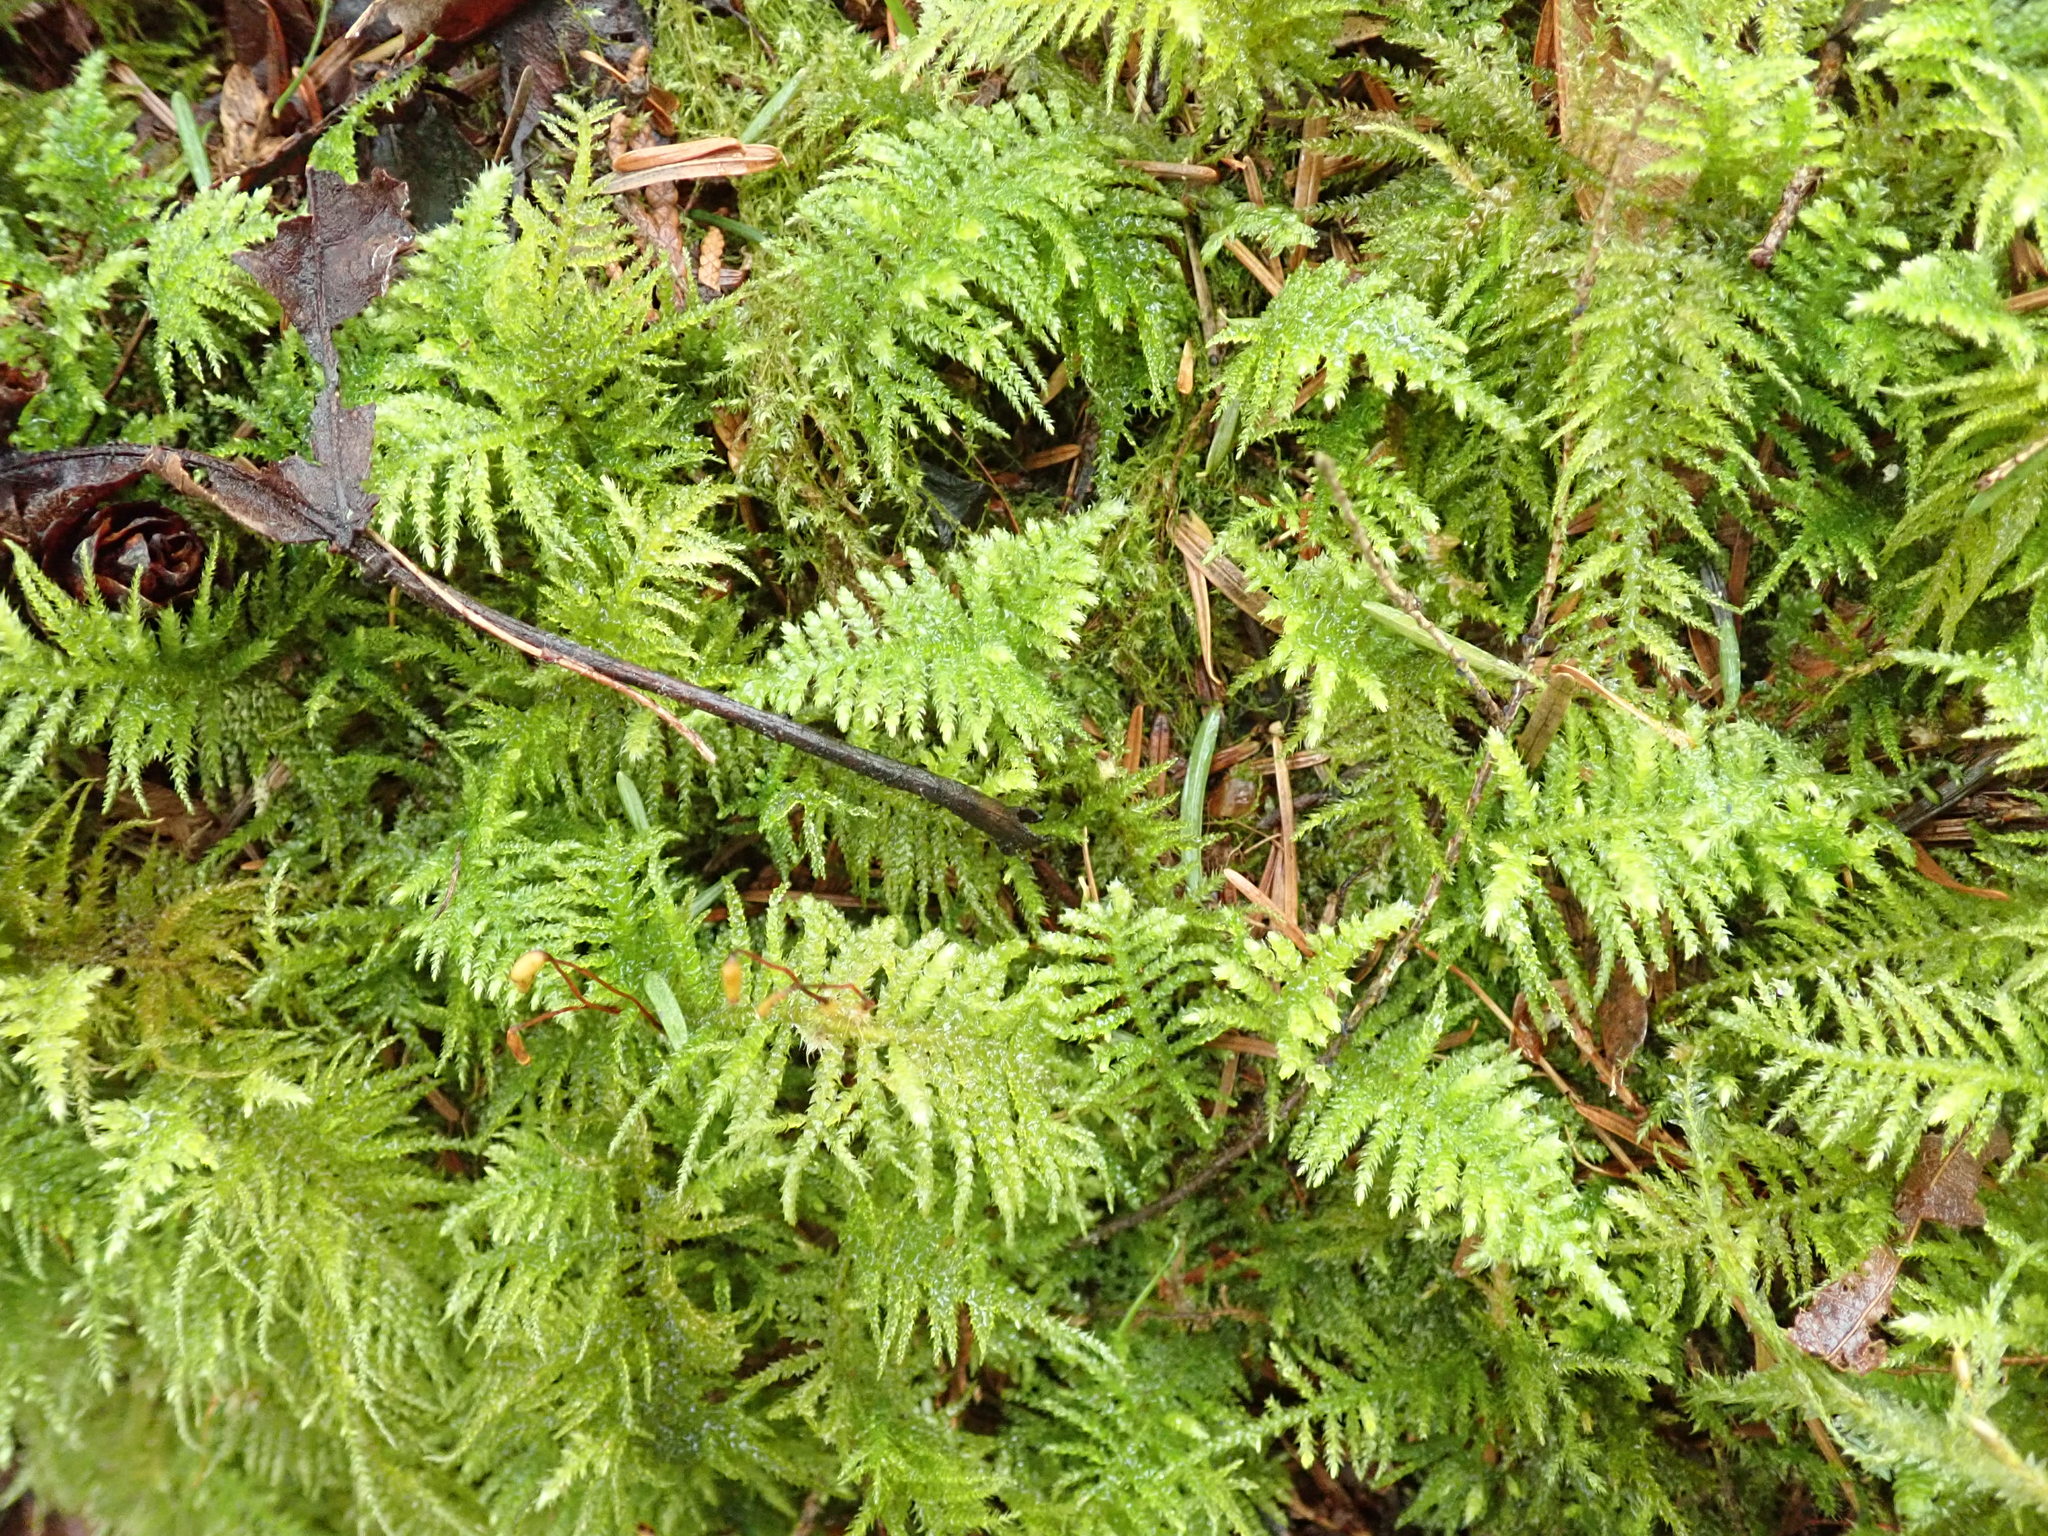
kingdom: Plantae
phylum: Bryophyta
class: Bryopsida
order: Hypnales
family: Brachytheciaceae
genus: Kindbergia
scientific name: Kindbergia oregana
